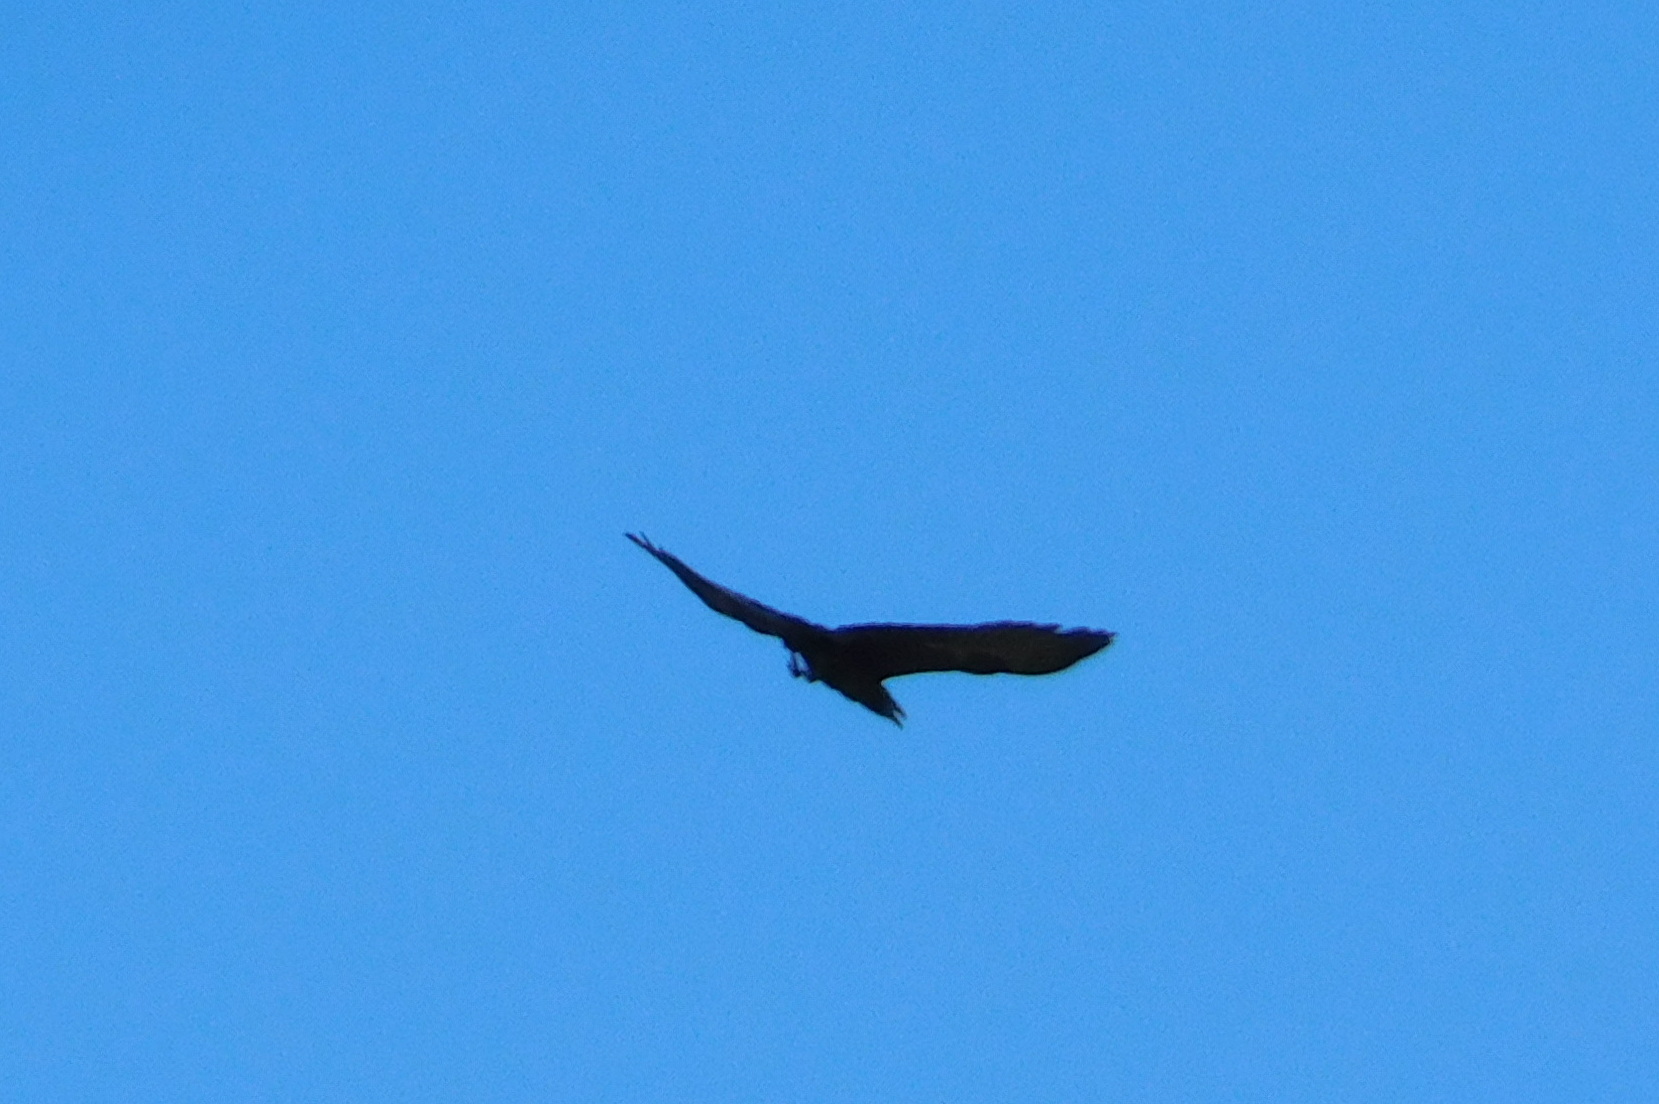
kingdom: Animalia
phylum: Chordata
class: Aves
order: Passeriformes
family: Corvidae
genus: Corvus
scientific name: Corvus corax
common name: Common raven
